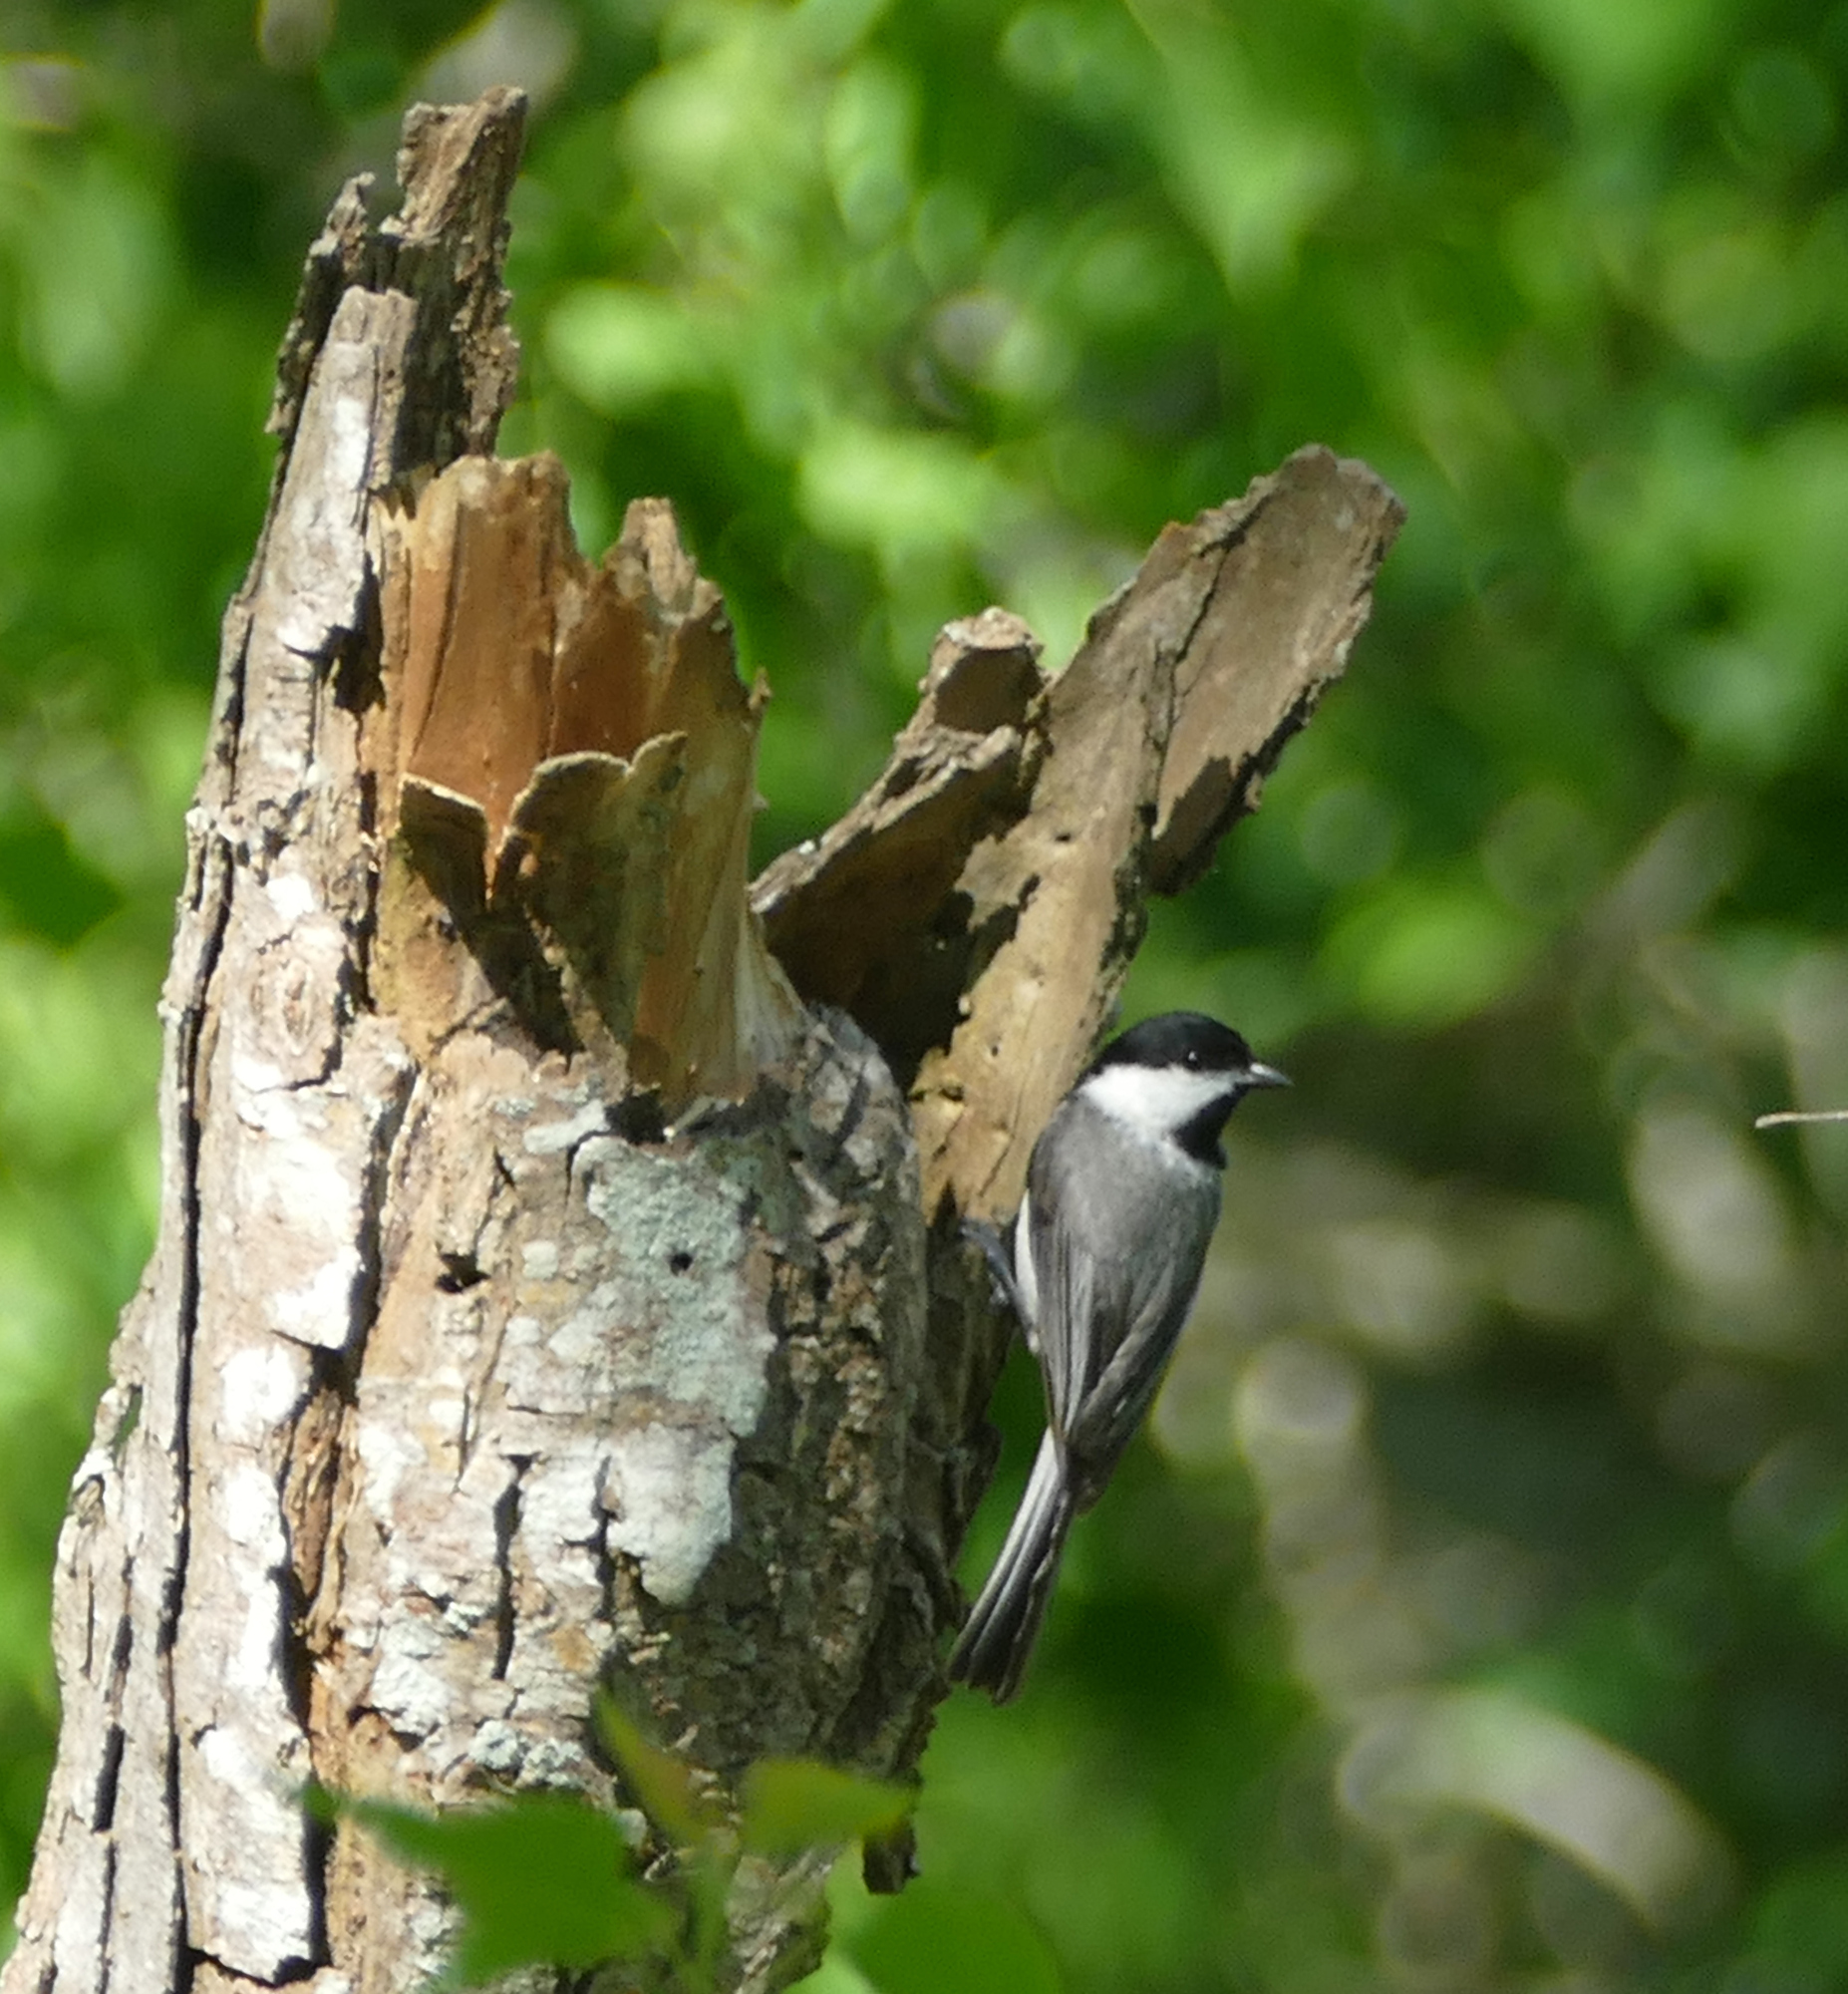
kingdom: Animalia
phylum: Chordata
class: Aves
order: Passeriformes
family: Paridae
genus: Poecile
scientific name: Poecile carolinensis
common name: Carolina chickadee
